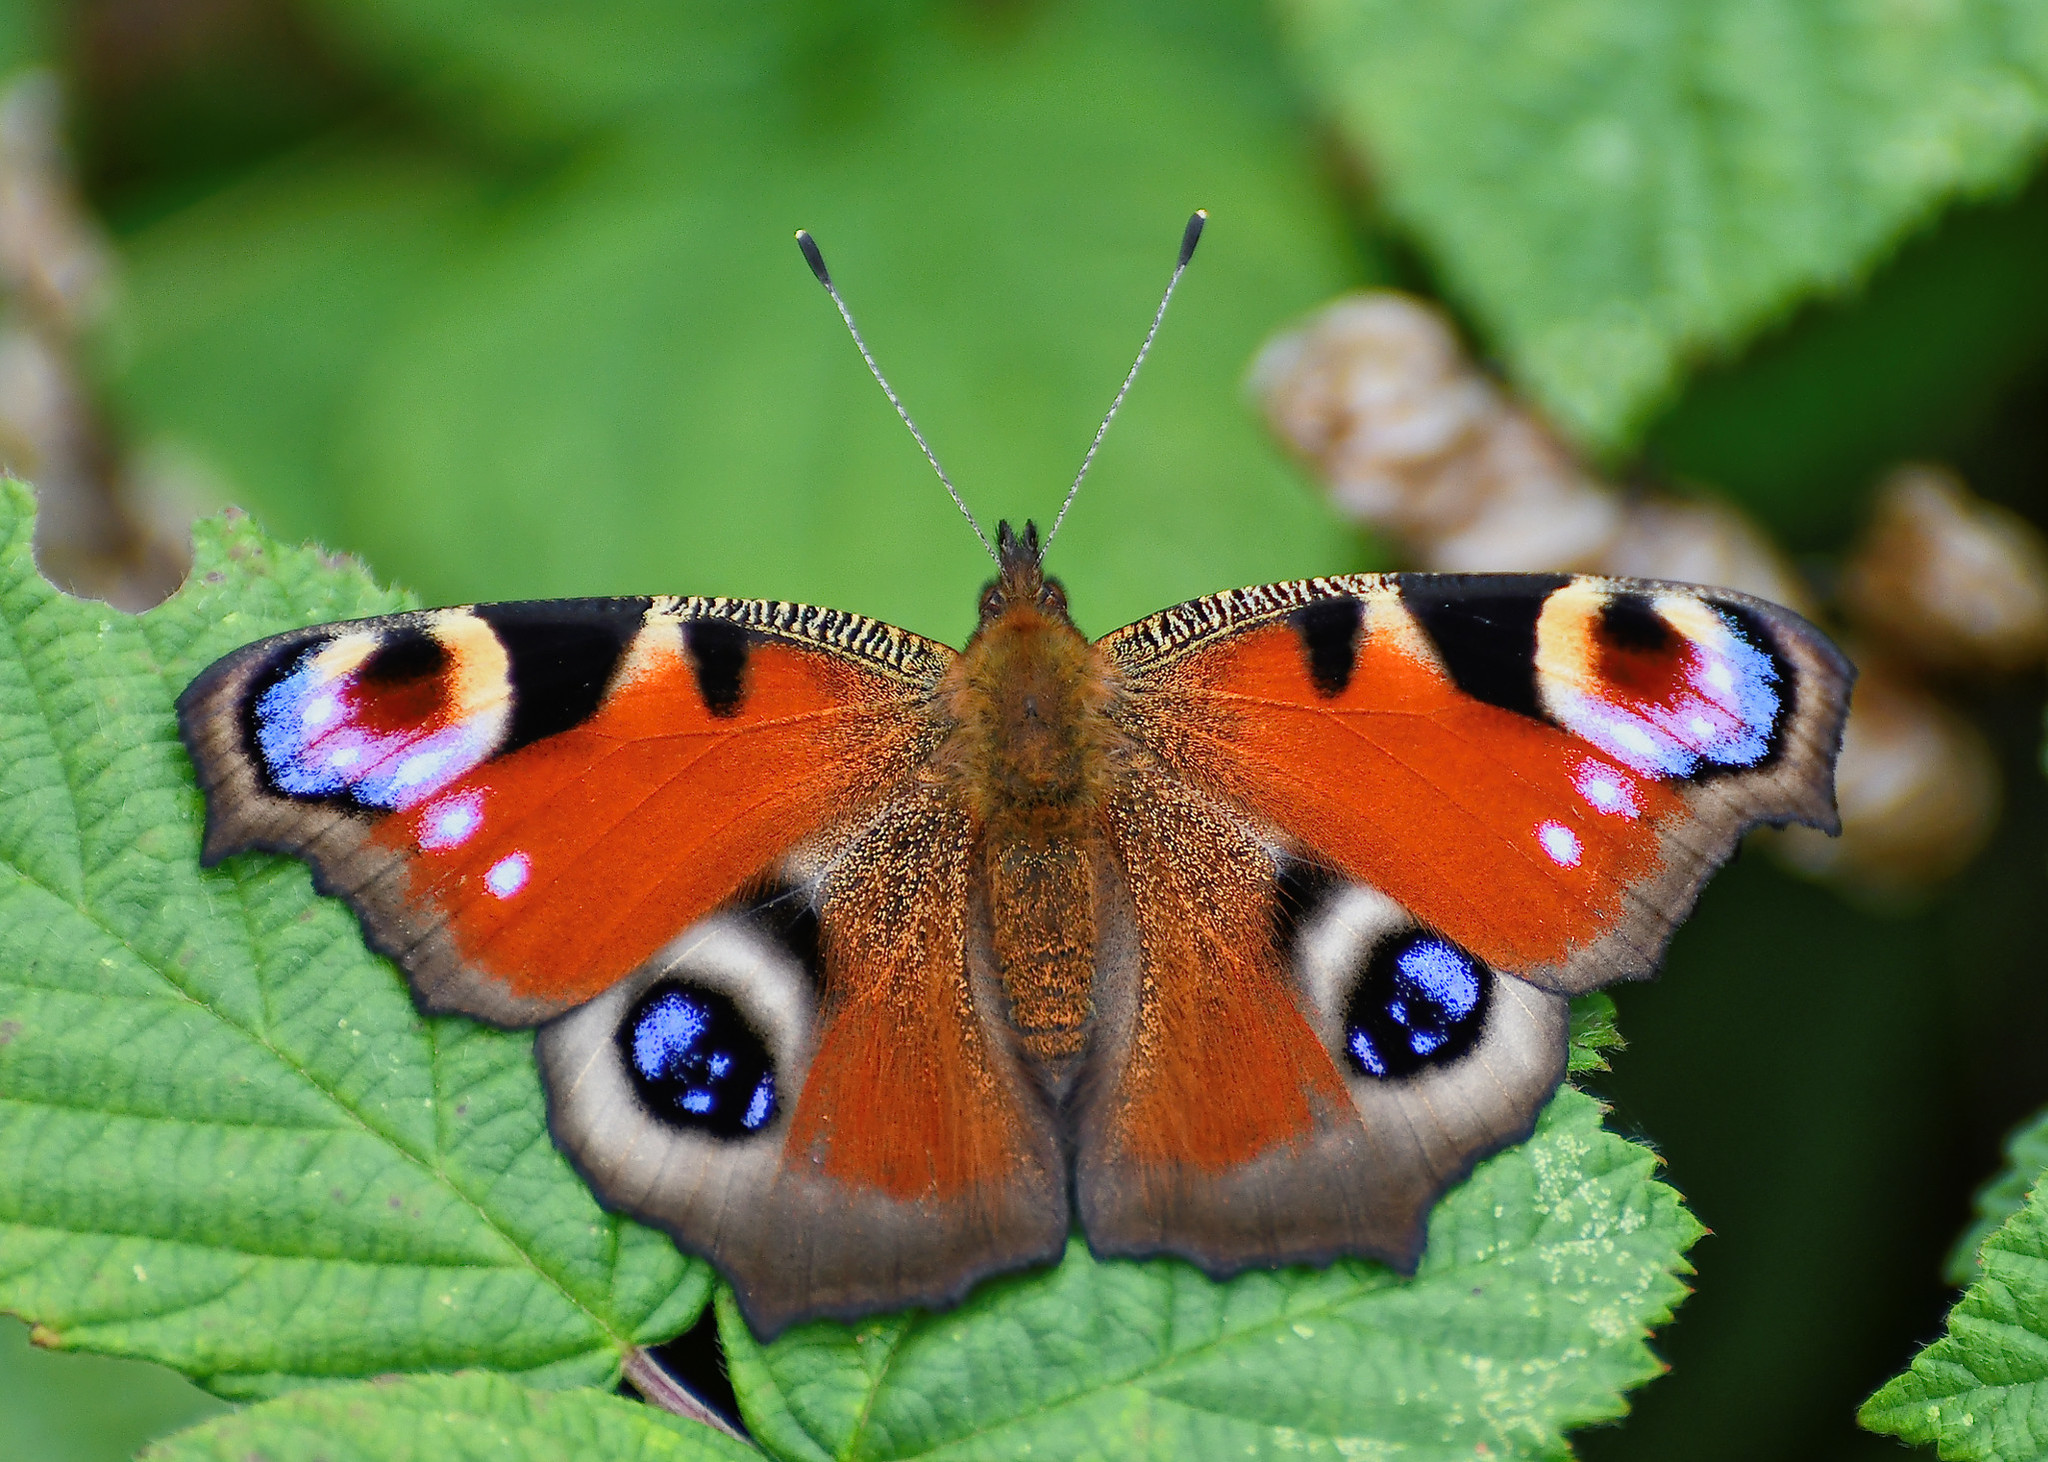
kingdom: Animalia
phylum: Arthropoda
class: Insecta
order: Lepidoptera
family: Nymphalidae
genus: Aglais
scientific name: Aglais io
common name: Peacock
